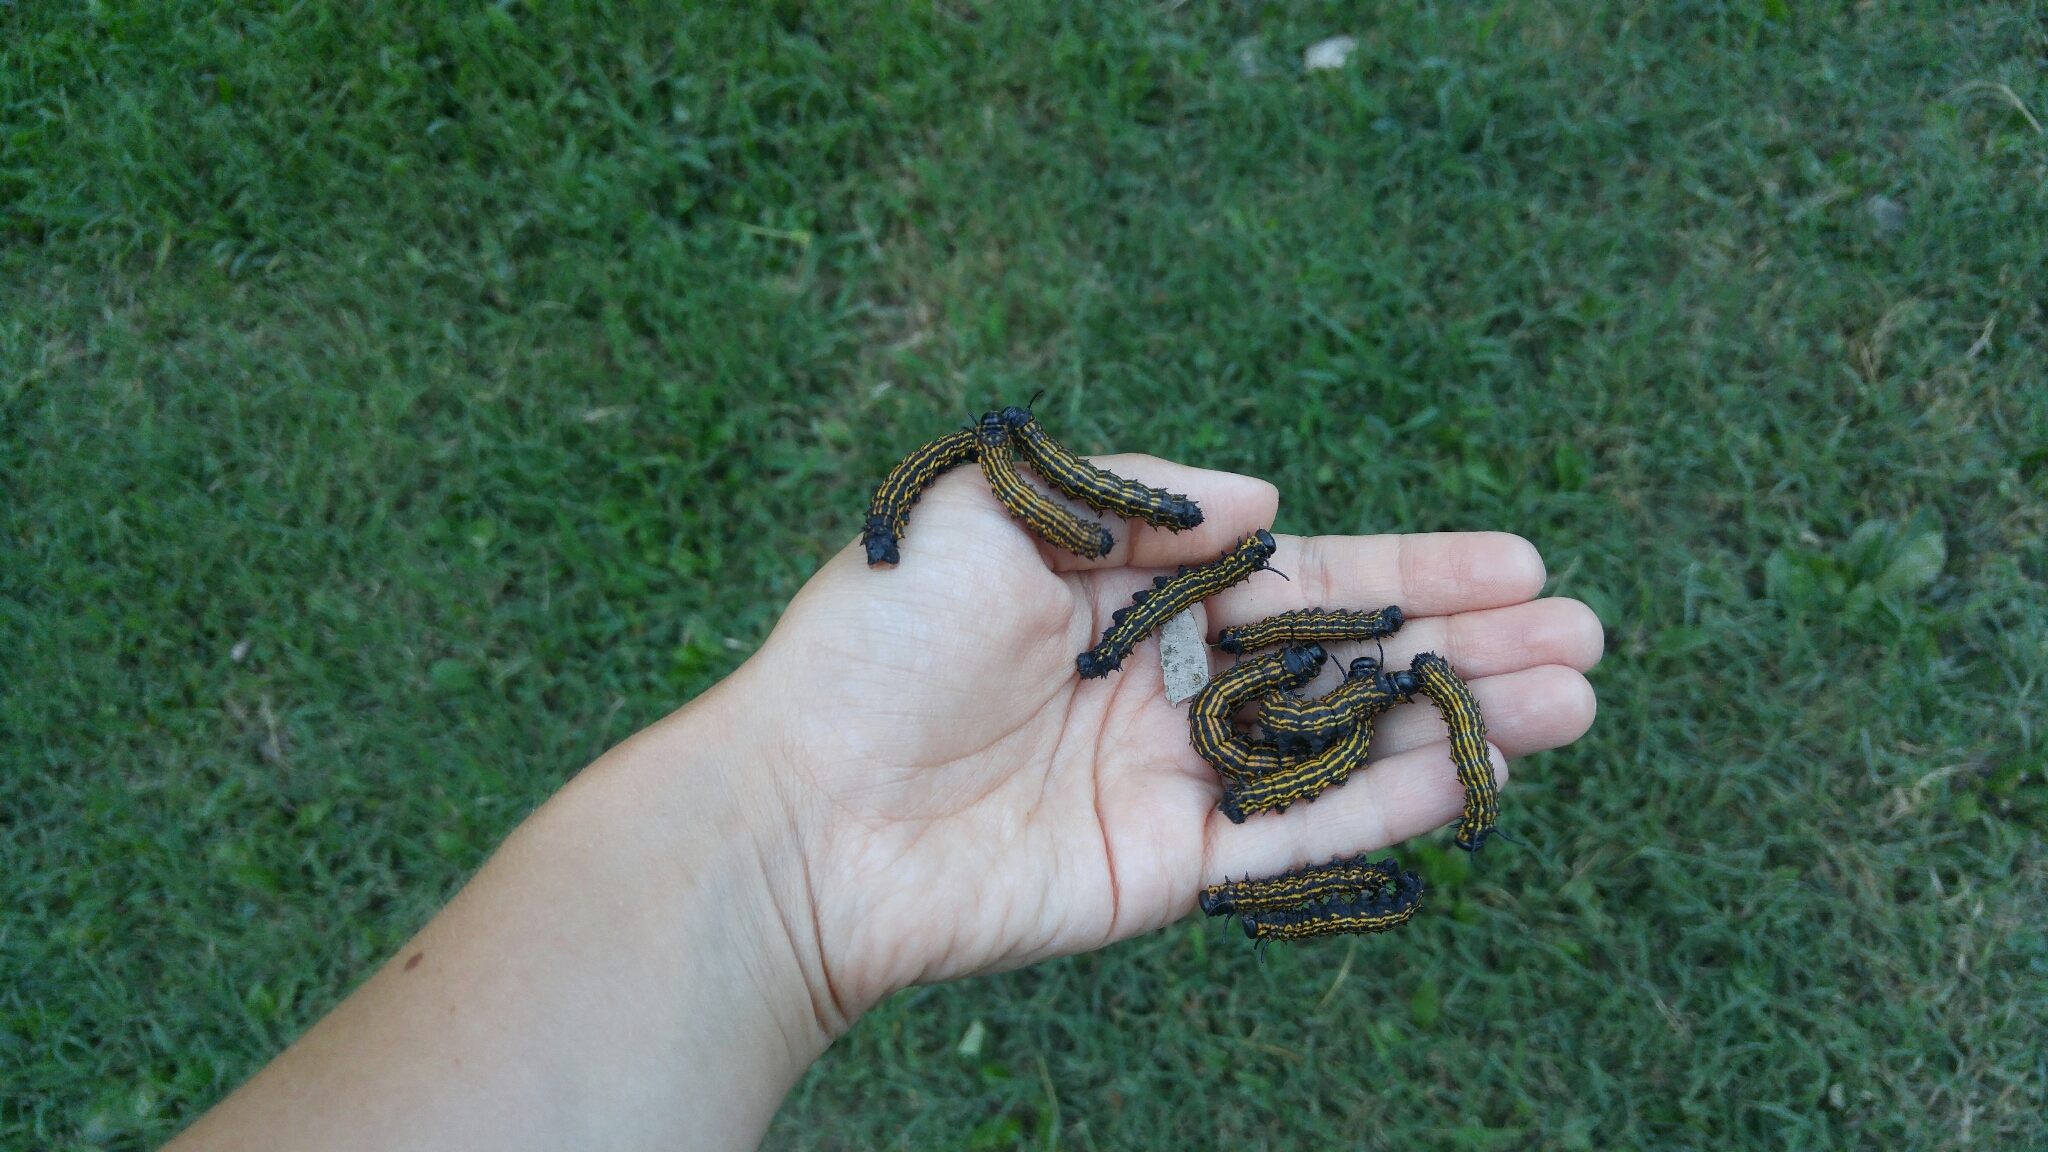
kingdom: Animalia
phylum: Arthropoda
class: Insecta
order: Lepidoptera
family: Saturniidae
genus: Anisota
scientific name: Anisota senatoria
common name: Orange-striped oakworm moth
